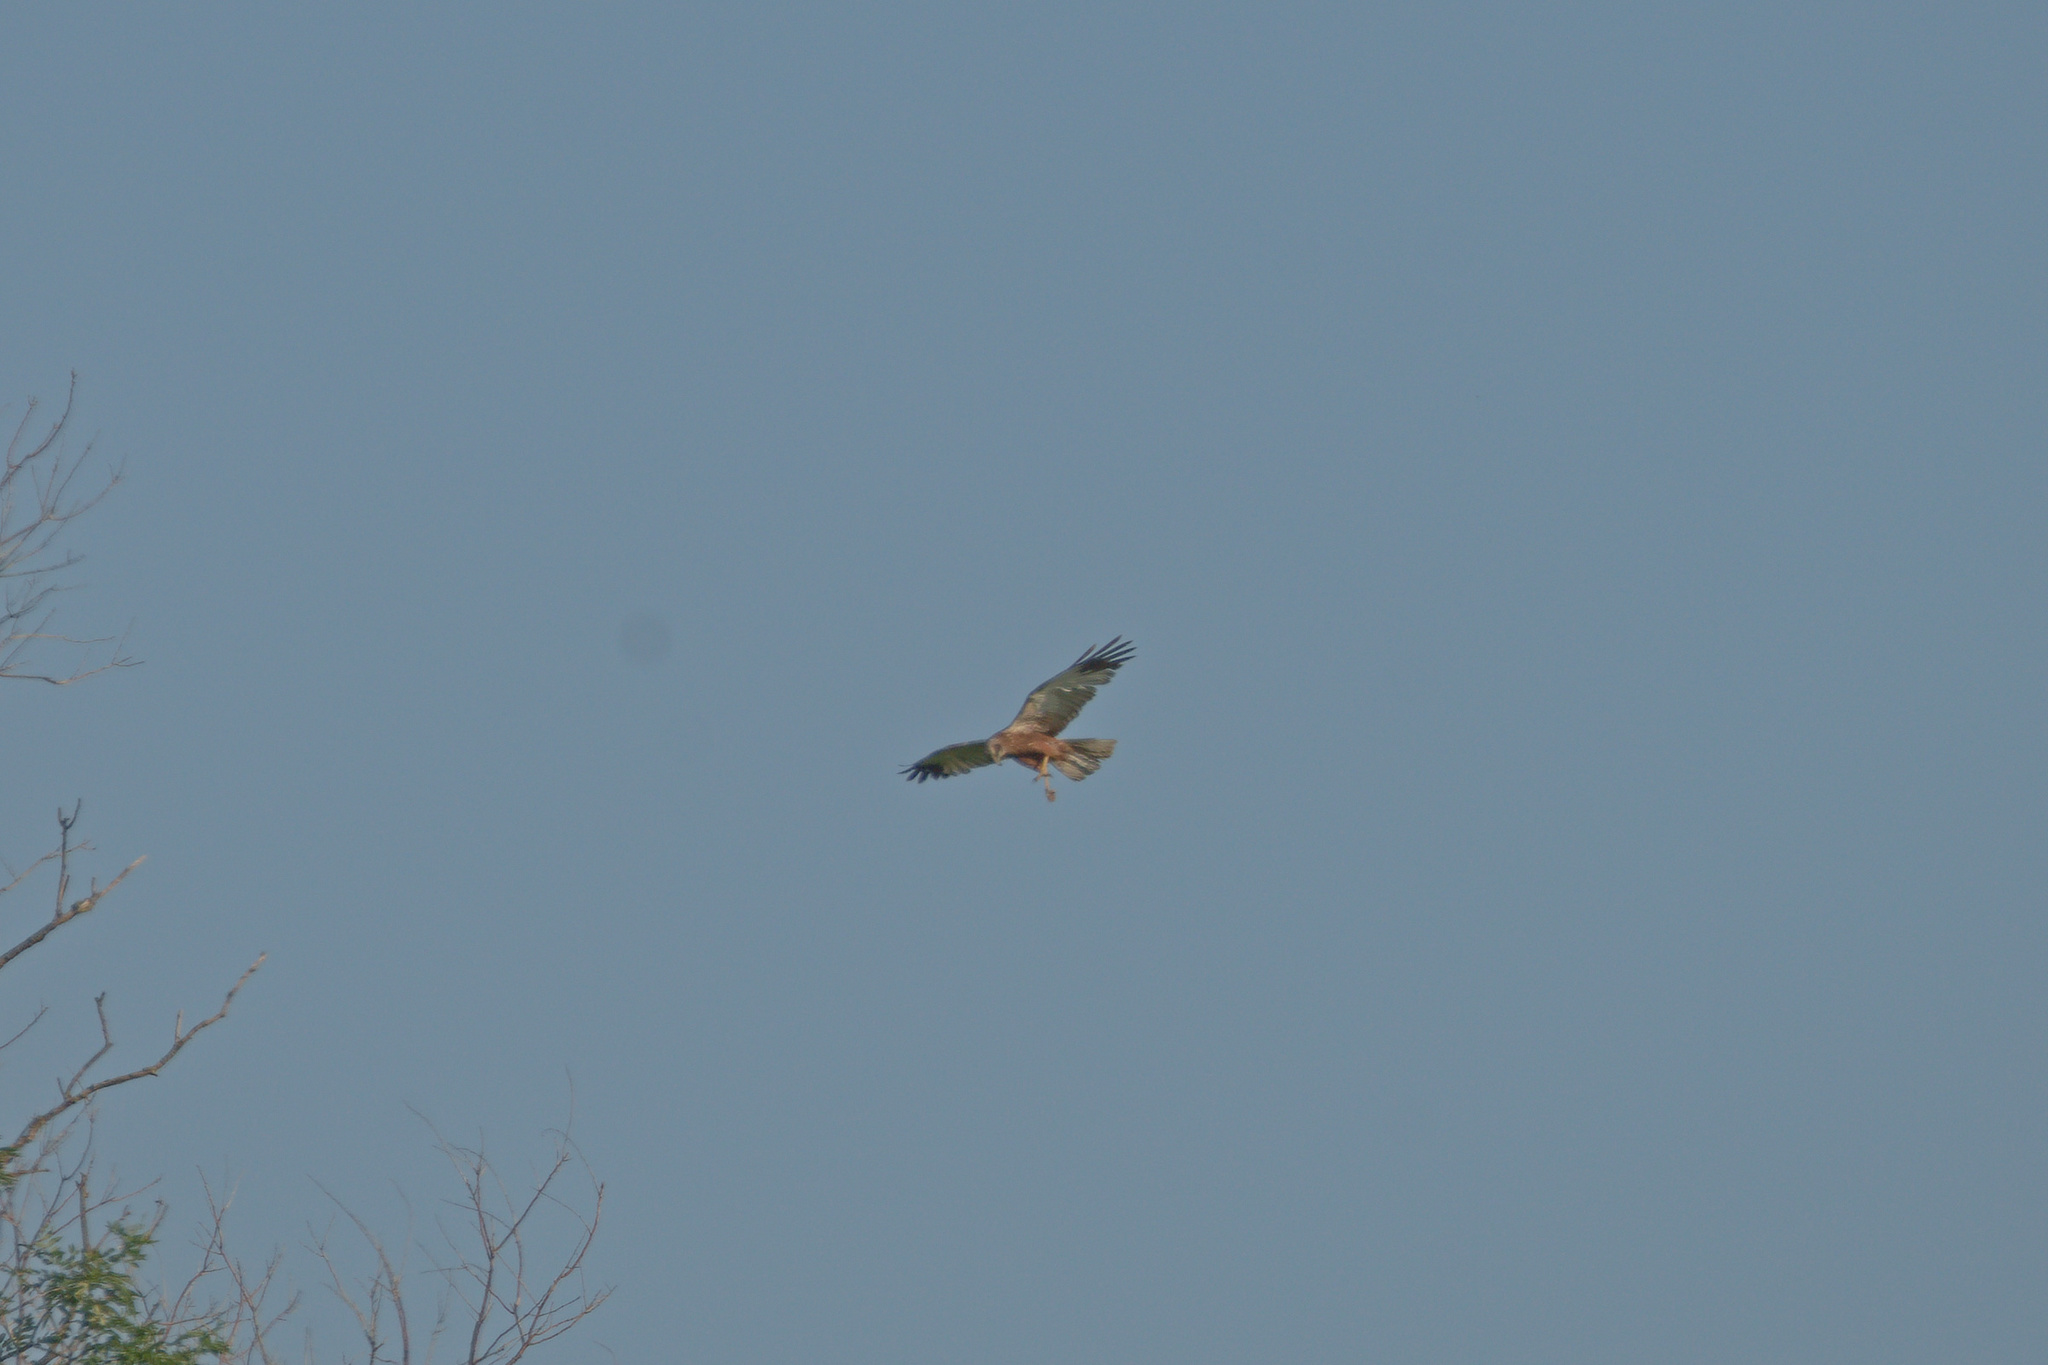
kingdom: Animalia
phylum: Chordata
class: Aves
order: Accipitriformes
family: Accipitridae
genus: Circus
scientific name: Circus aeruginosus
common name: Western marsh harrier
